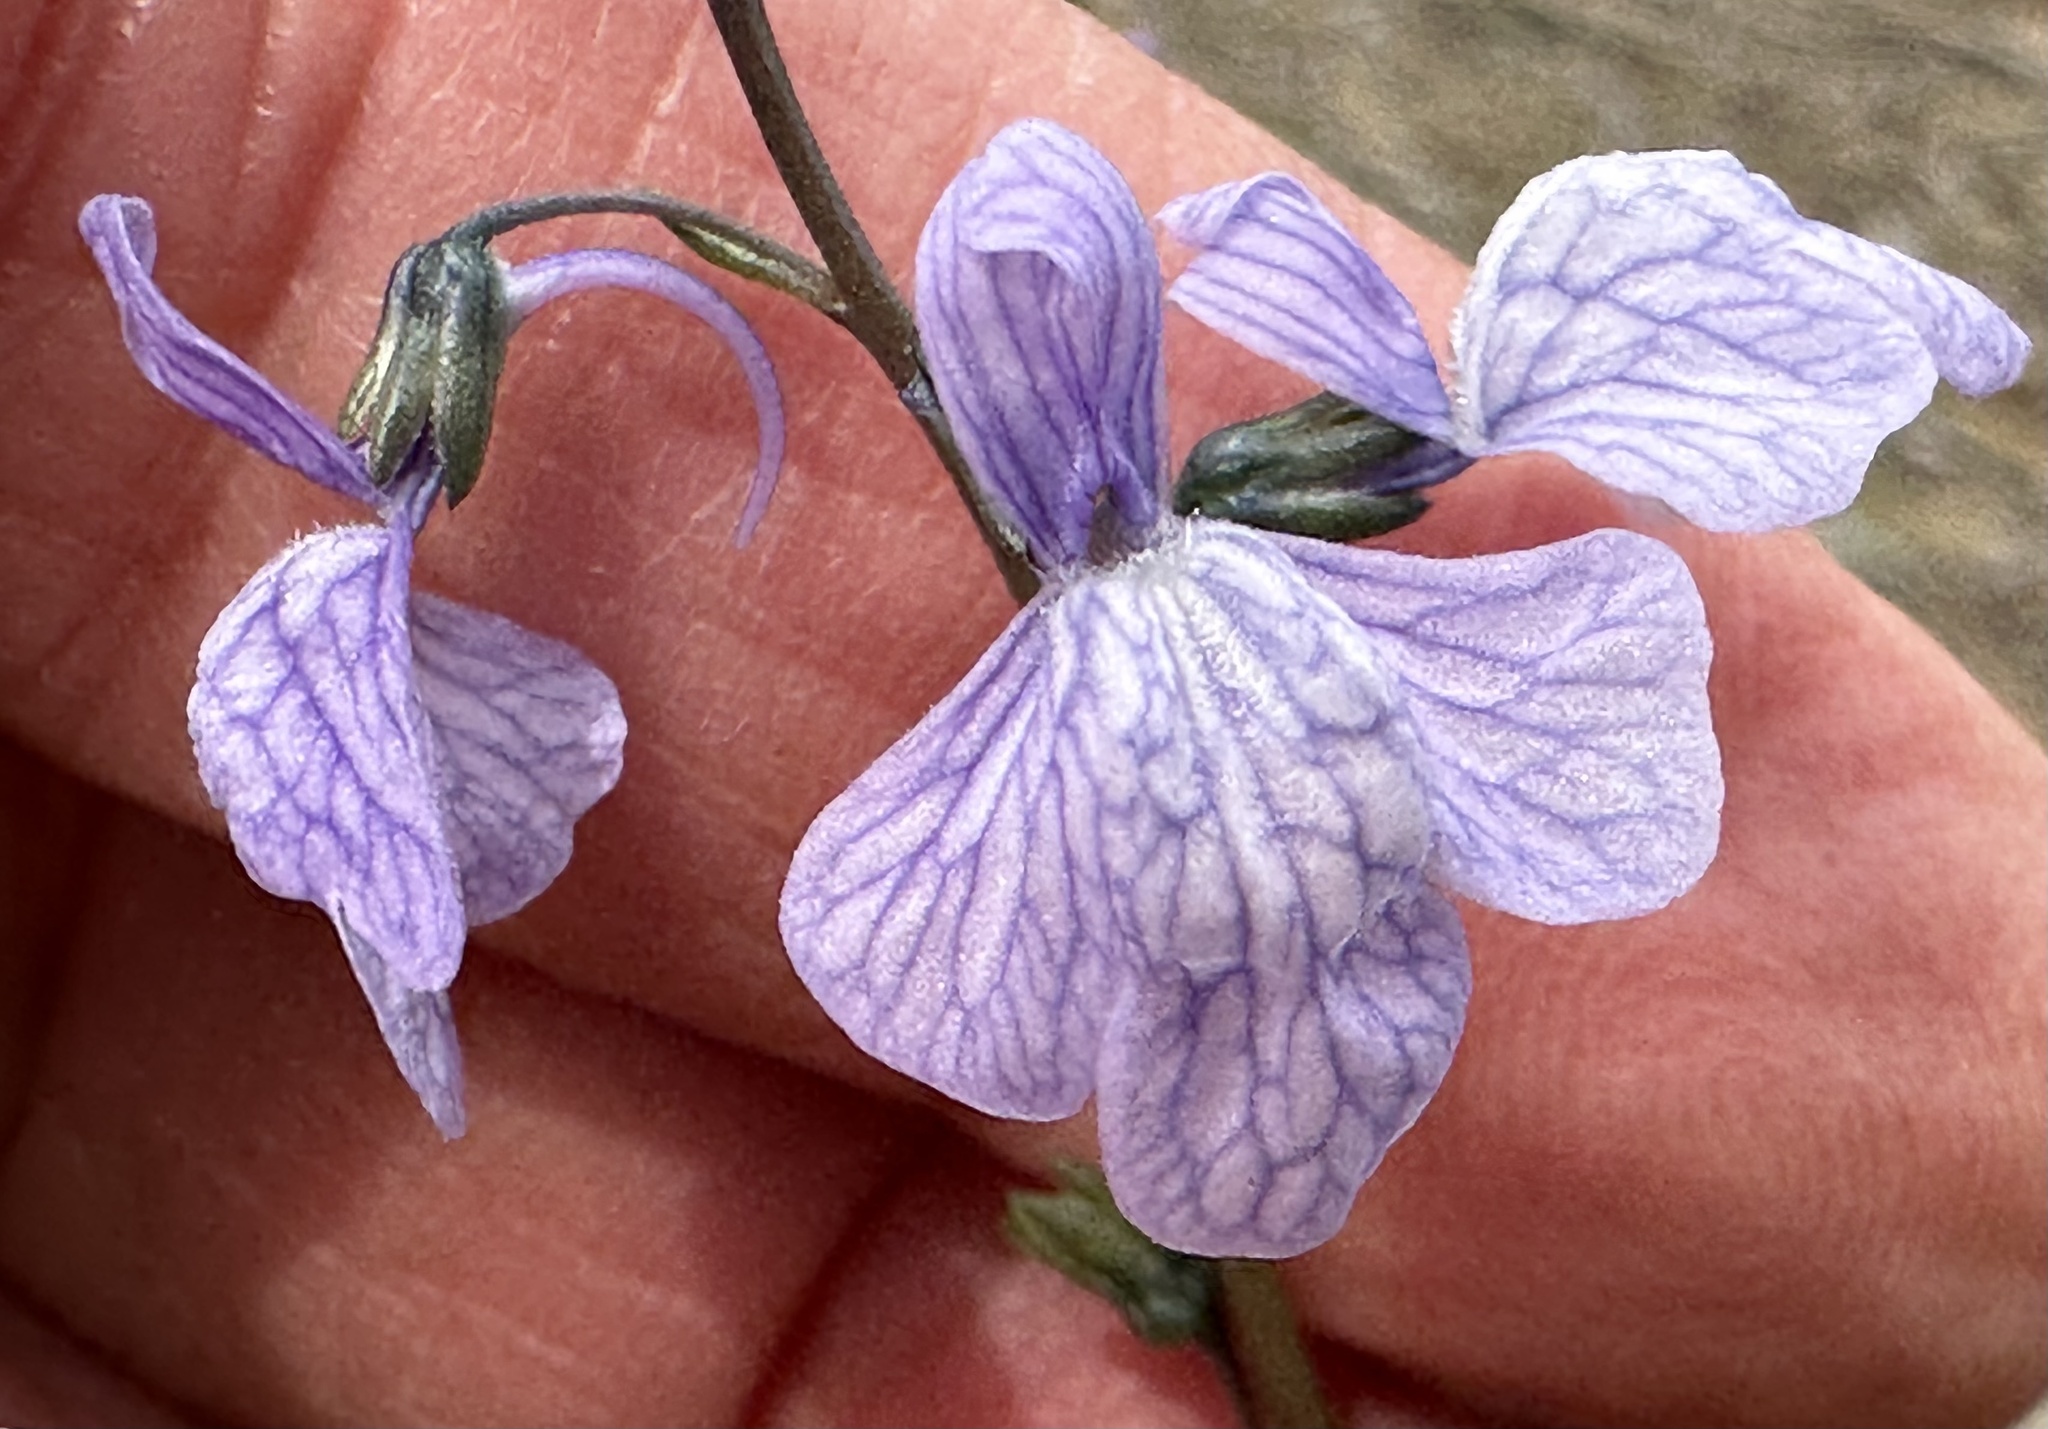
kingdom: Plantae
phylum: Tracheophyta
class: Magnoliopsida
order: Lamiales
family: Plantaginaceae
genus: Nuttallanthus
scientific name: Nuttallanthus texanus
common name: Texas toadflax
